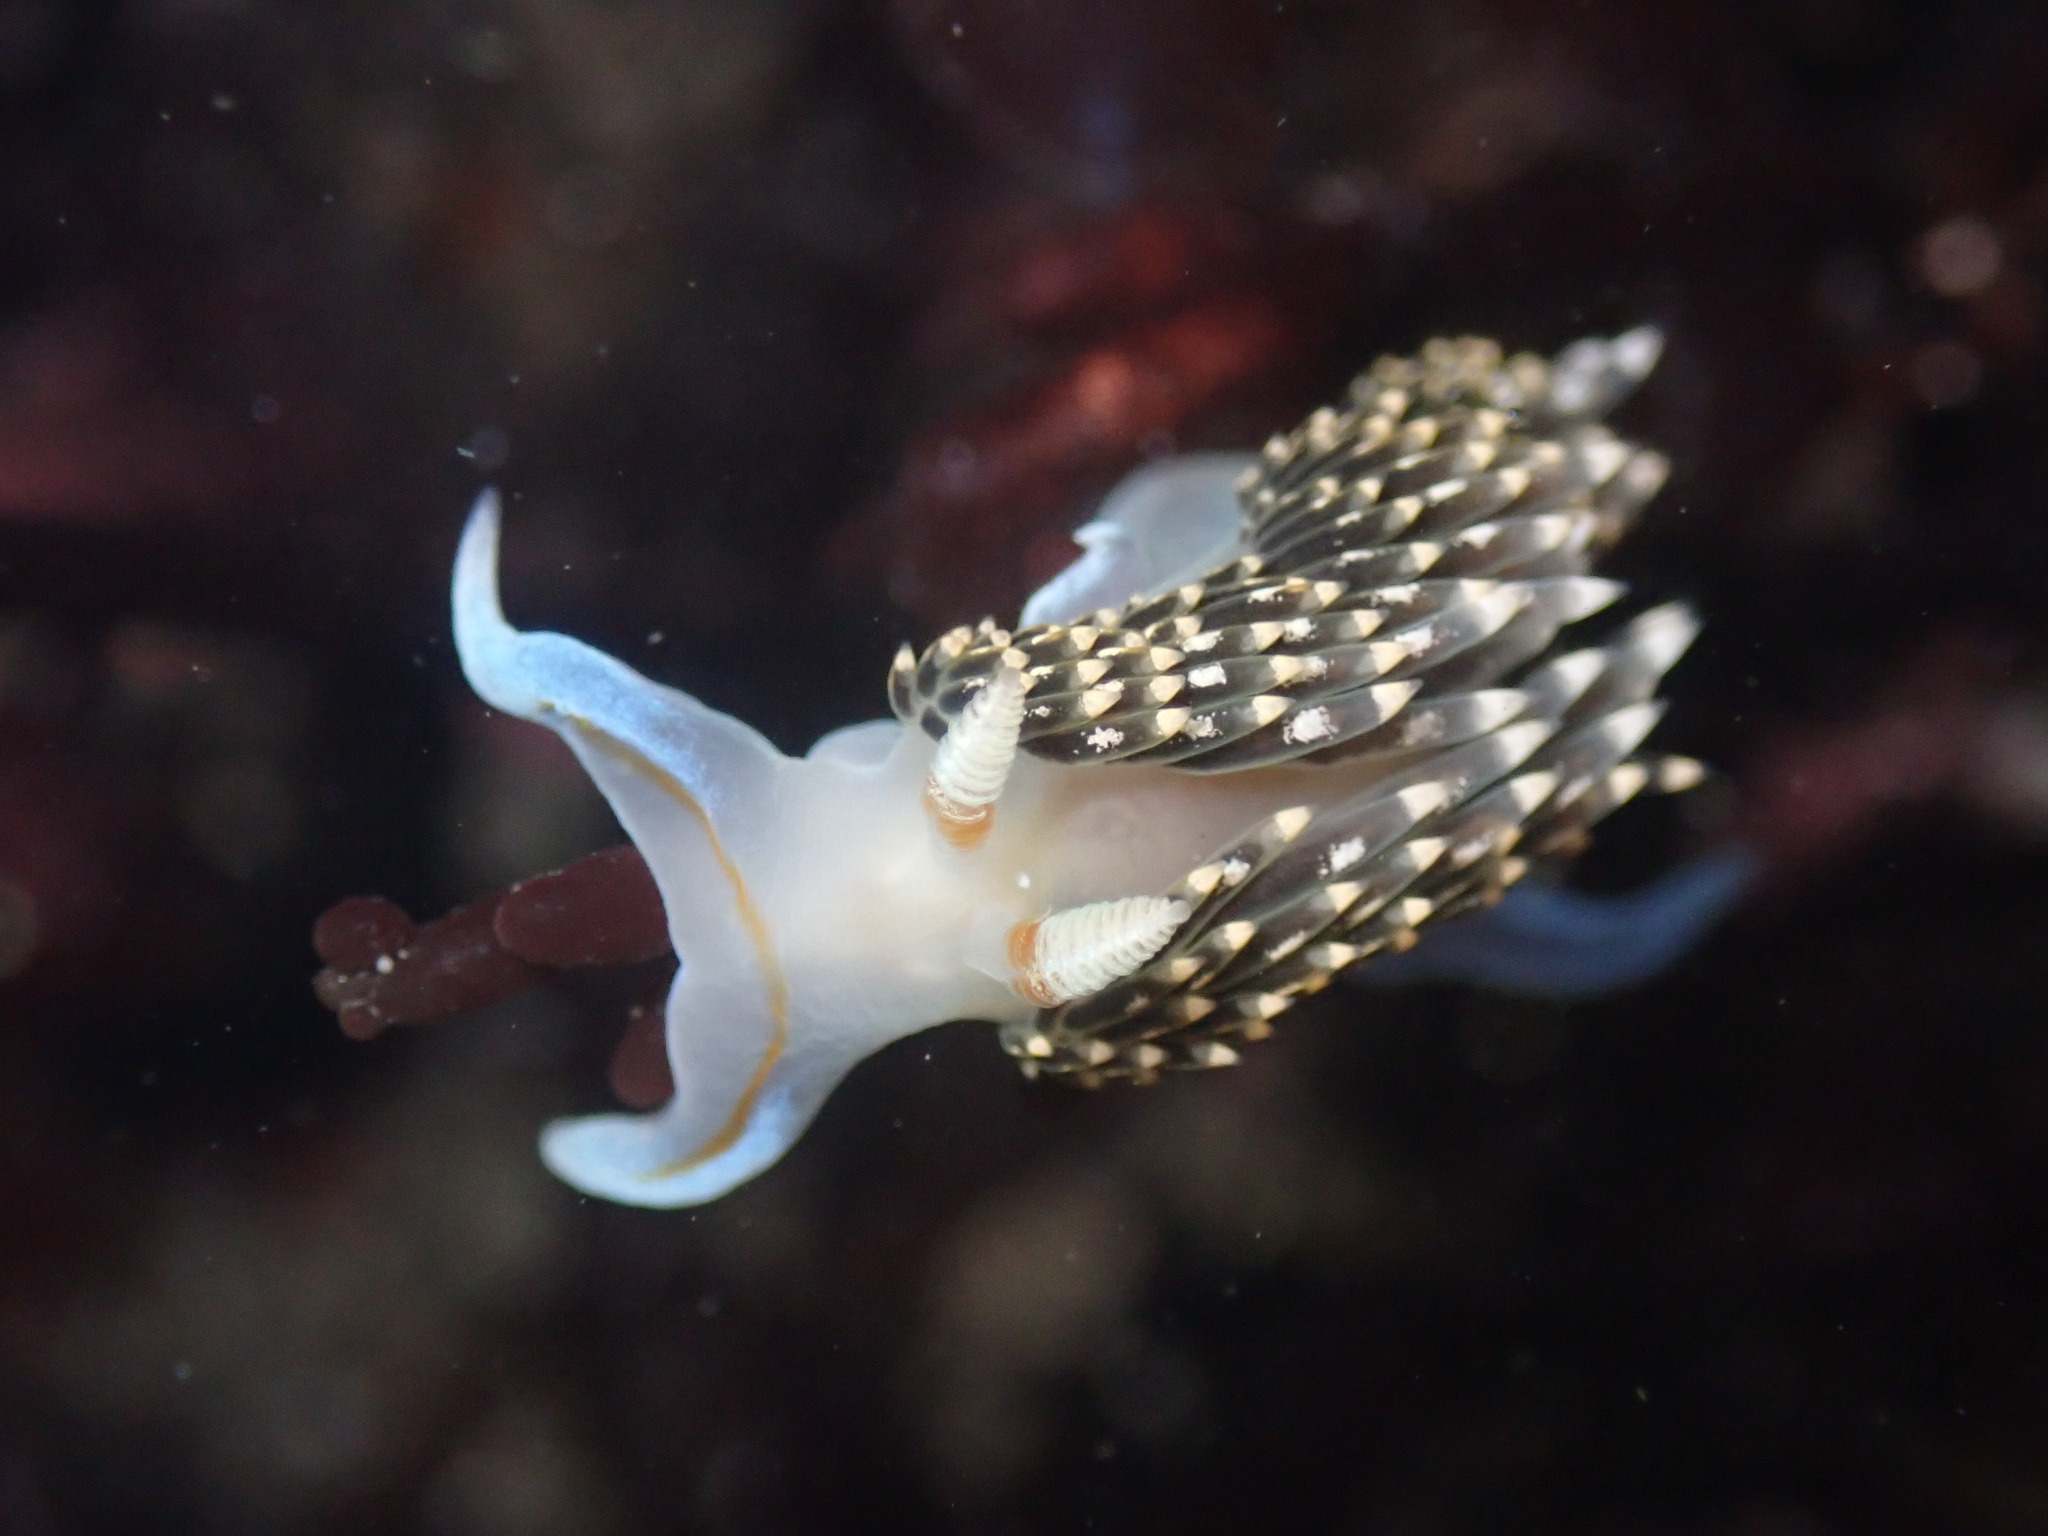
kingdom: Animalia
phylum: Mollusca
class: Gastropoda
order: Nudibranchia
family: Facelinidae
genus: Phidiana
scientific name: Phidiana hiltoni
